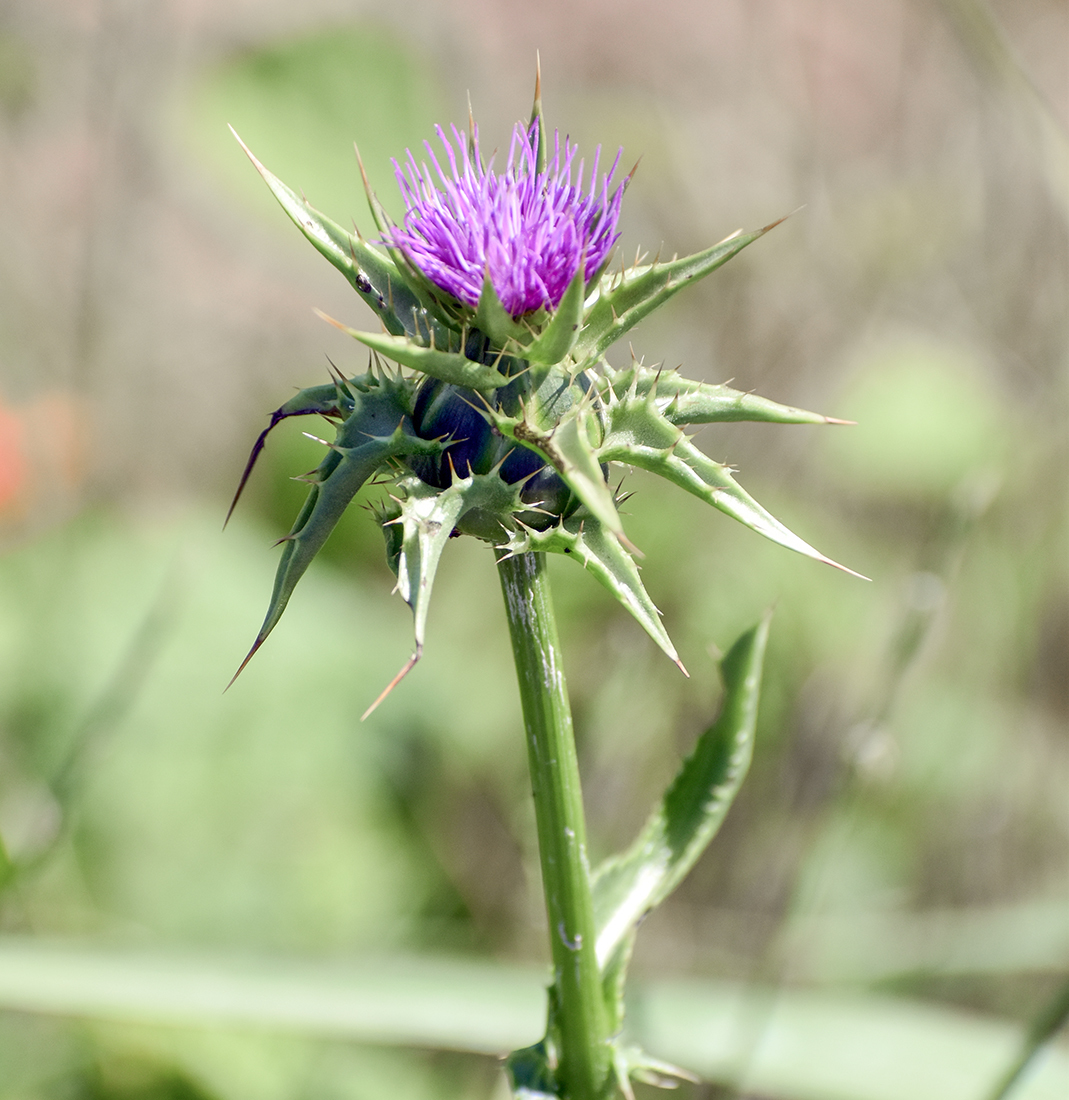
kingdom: Plantae
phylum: Tracheophyta
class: Magnoliopsida
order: Asterales
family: Asteraceae
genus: Silybum
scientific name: Silybum marianum
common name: Milk thistle
